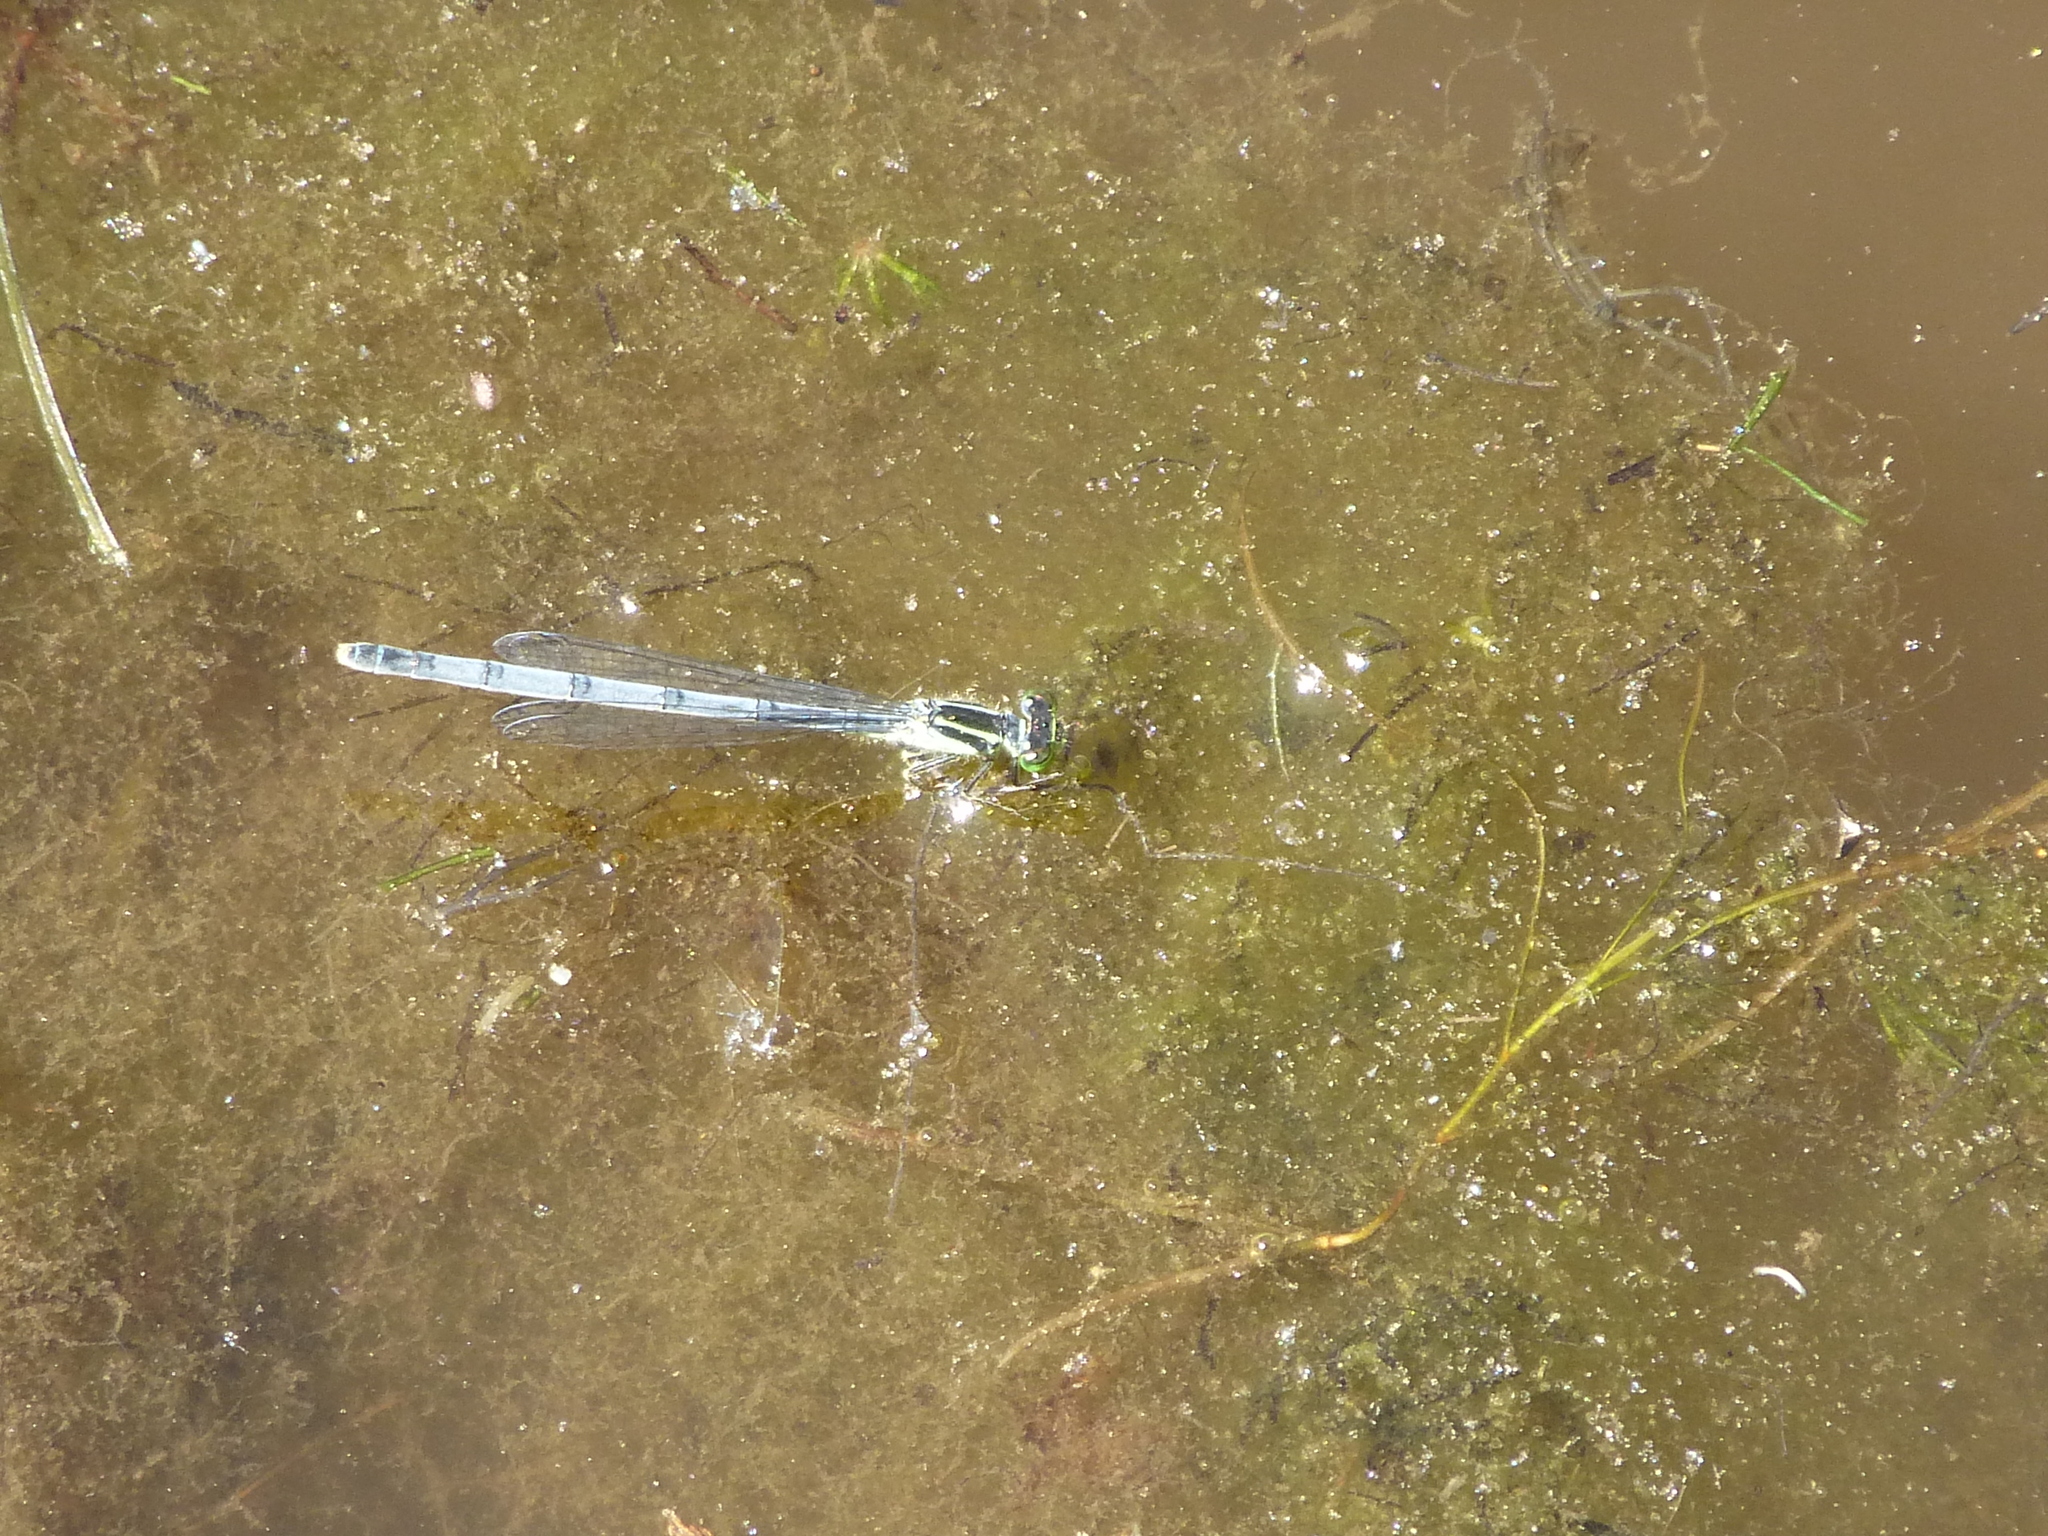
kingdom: Animalia
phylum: Arthropoda
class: Insecta
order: Odonata
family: Coenagrionidae
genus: Ischnura
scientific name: Ischnura verticalis
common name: Eastern forktail
